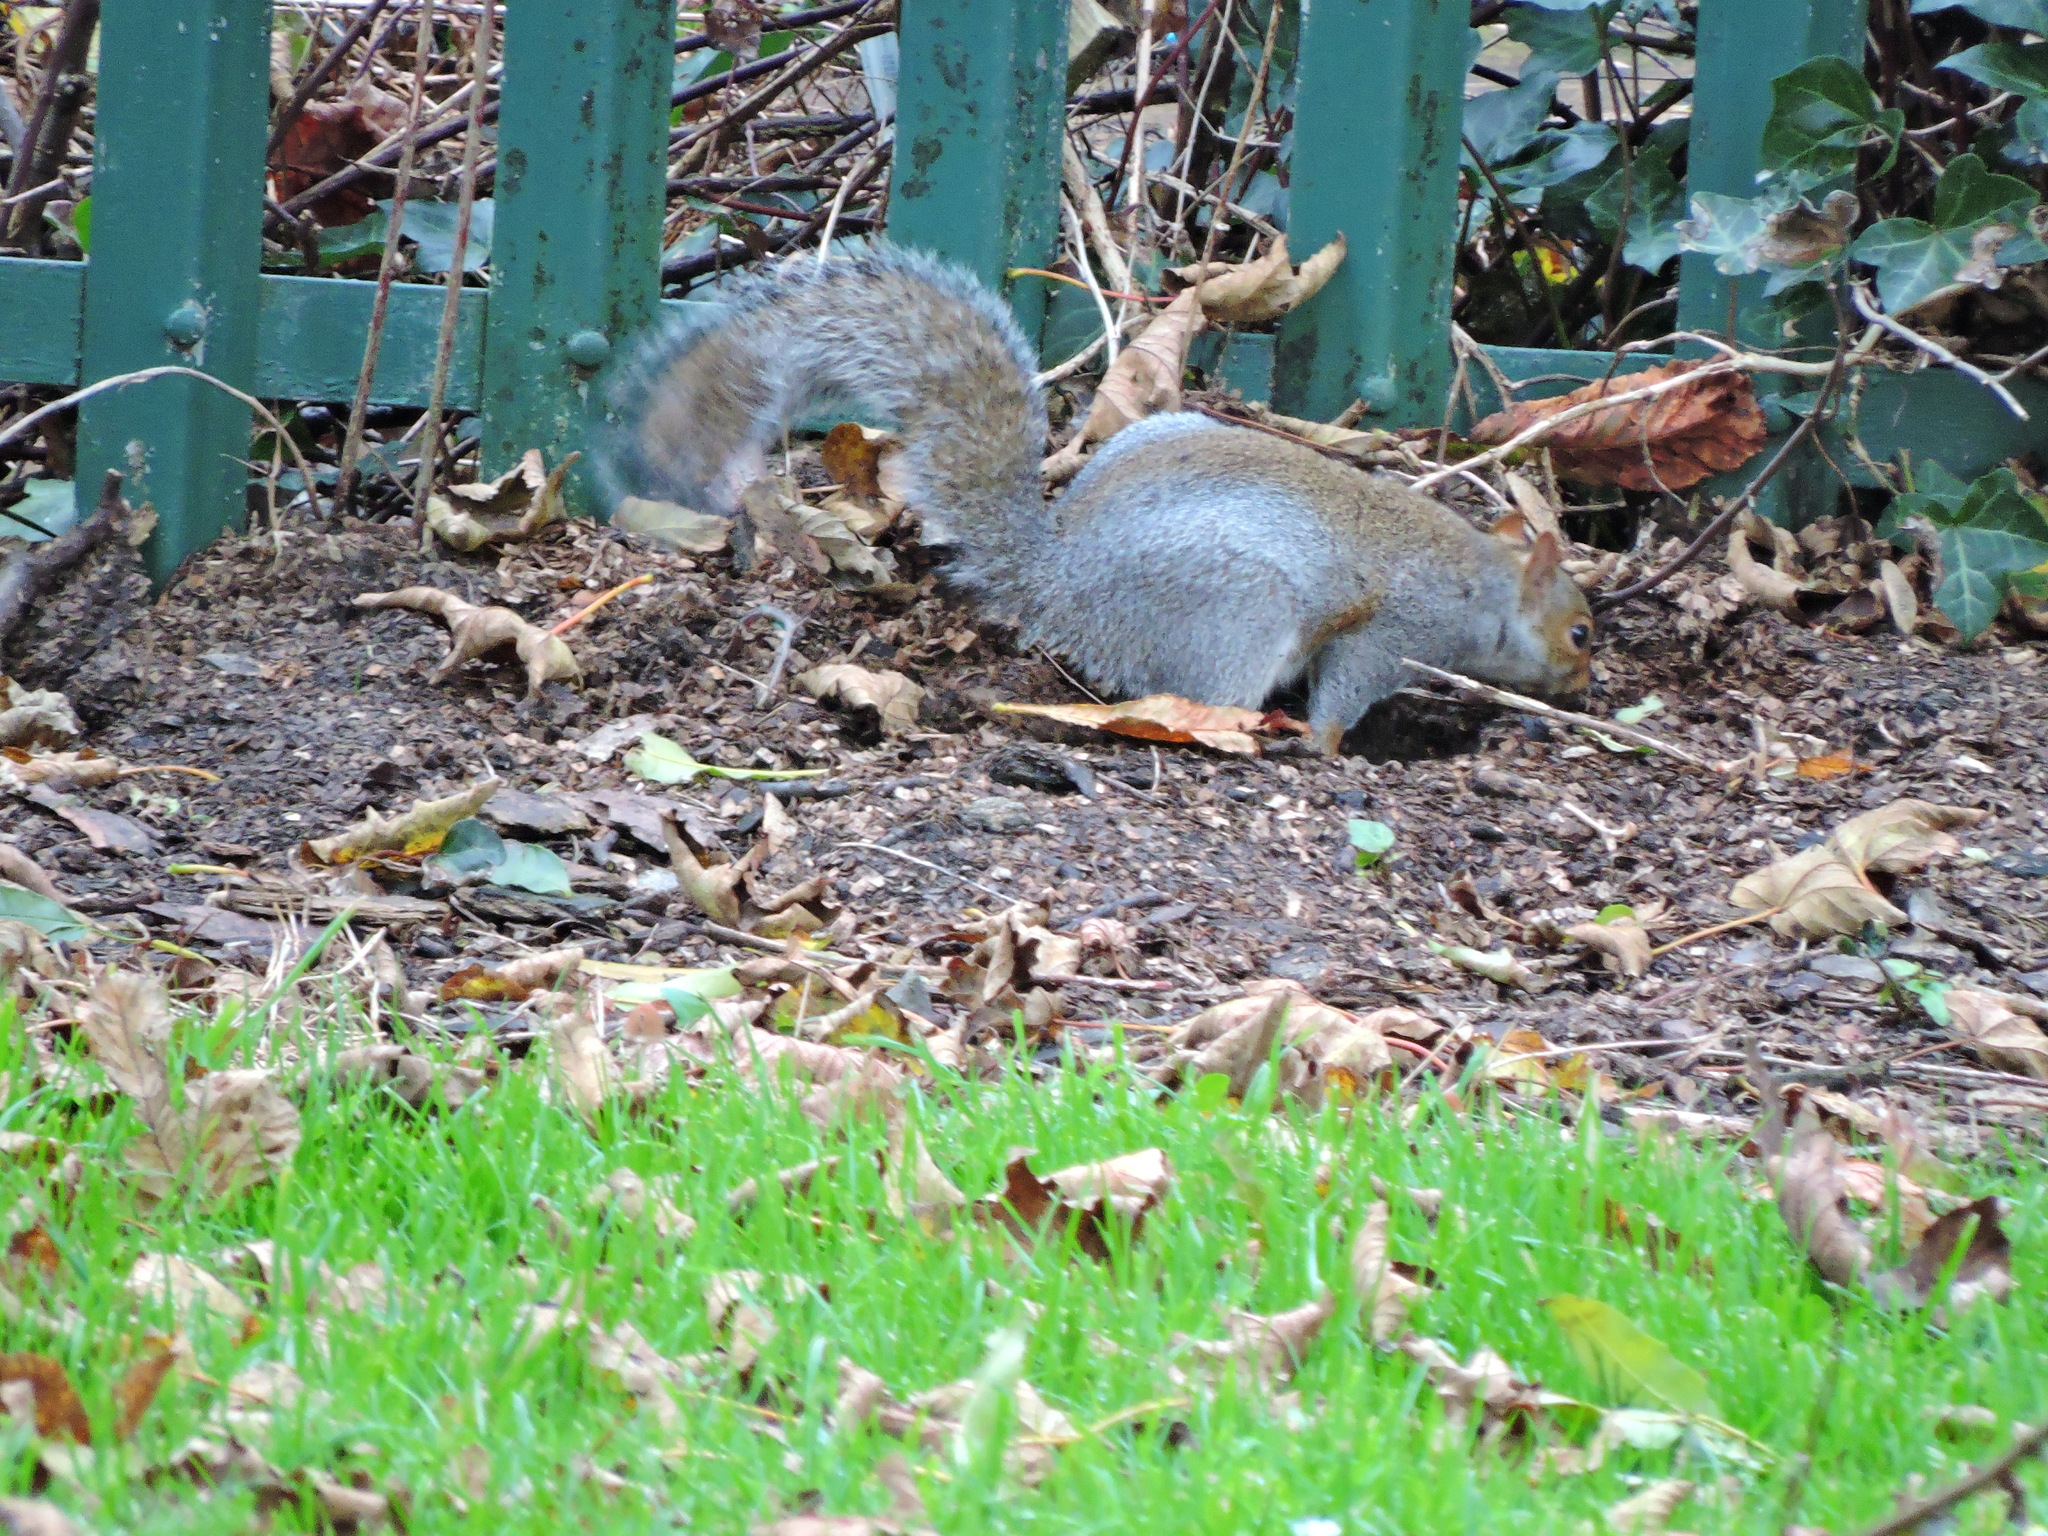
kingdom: Animalia
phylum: Chordata
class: Mammalia
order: Rodentia
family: Sciuridae
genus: Sciurus
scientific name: Sciurus carolinensis
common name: Eastern gray squirrel
